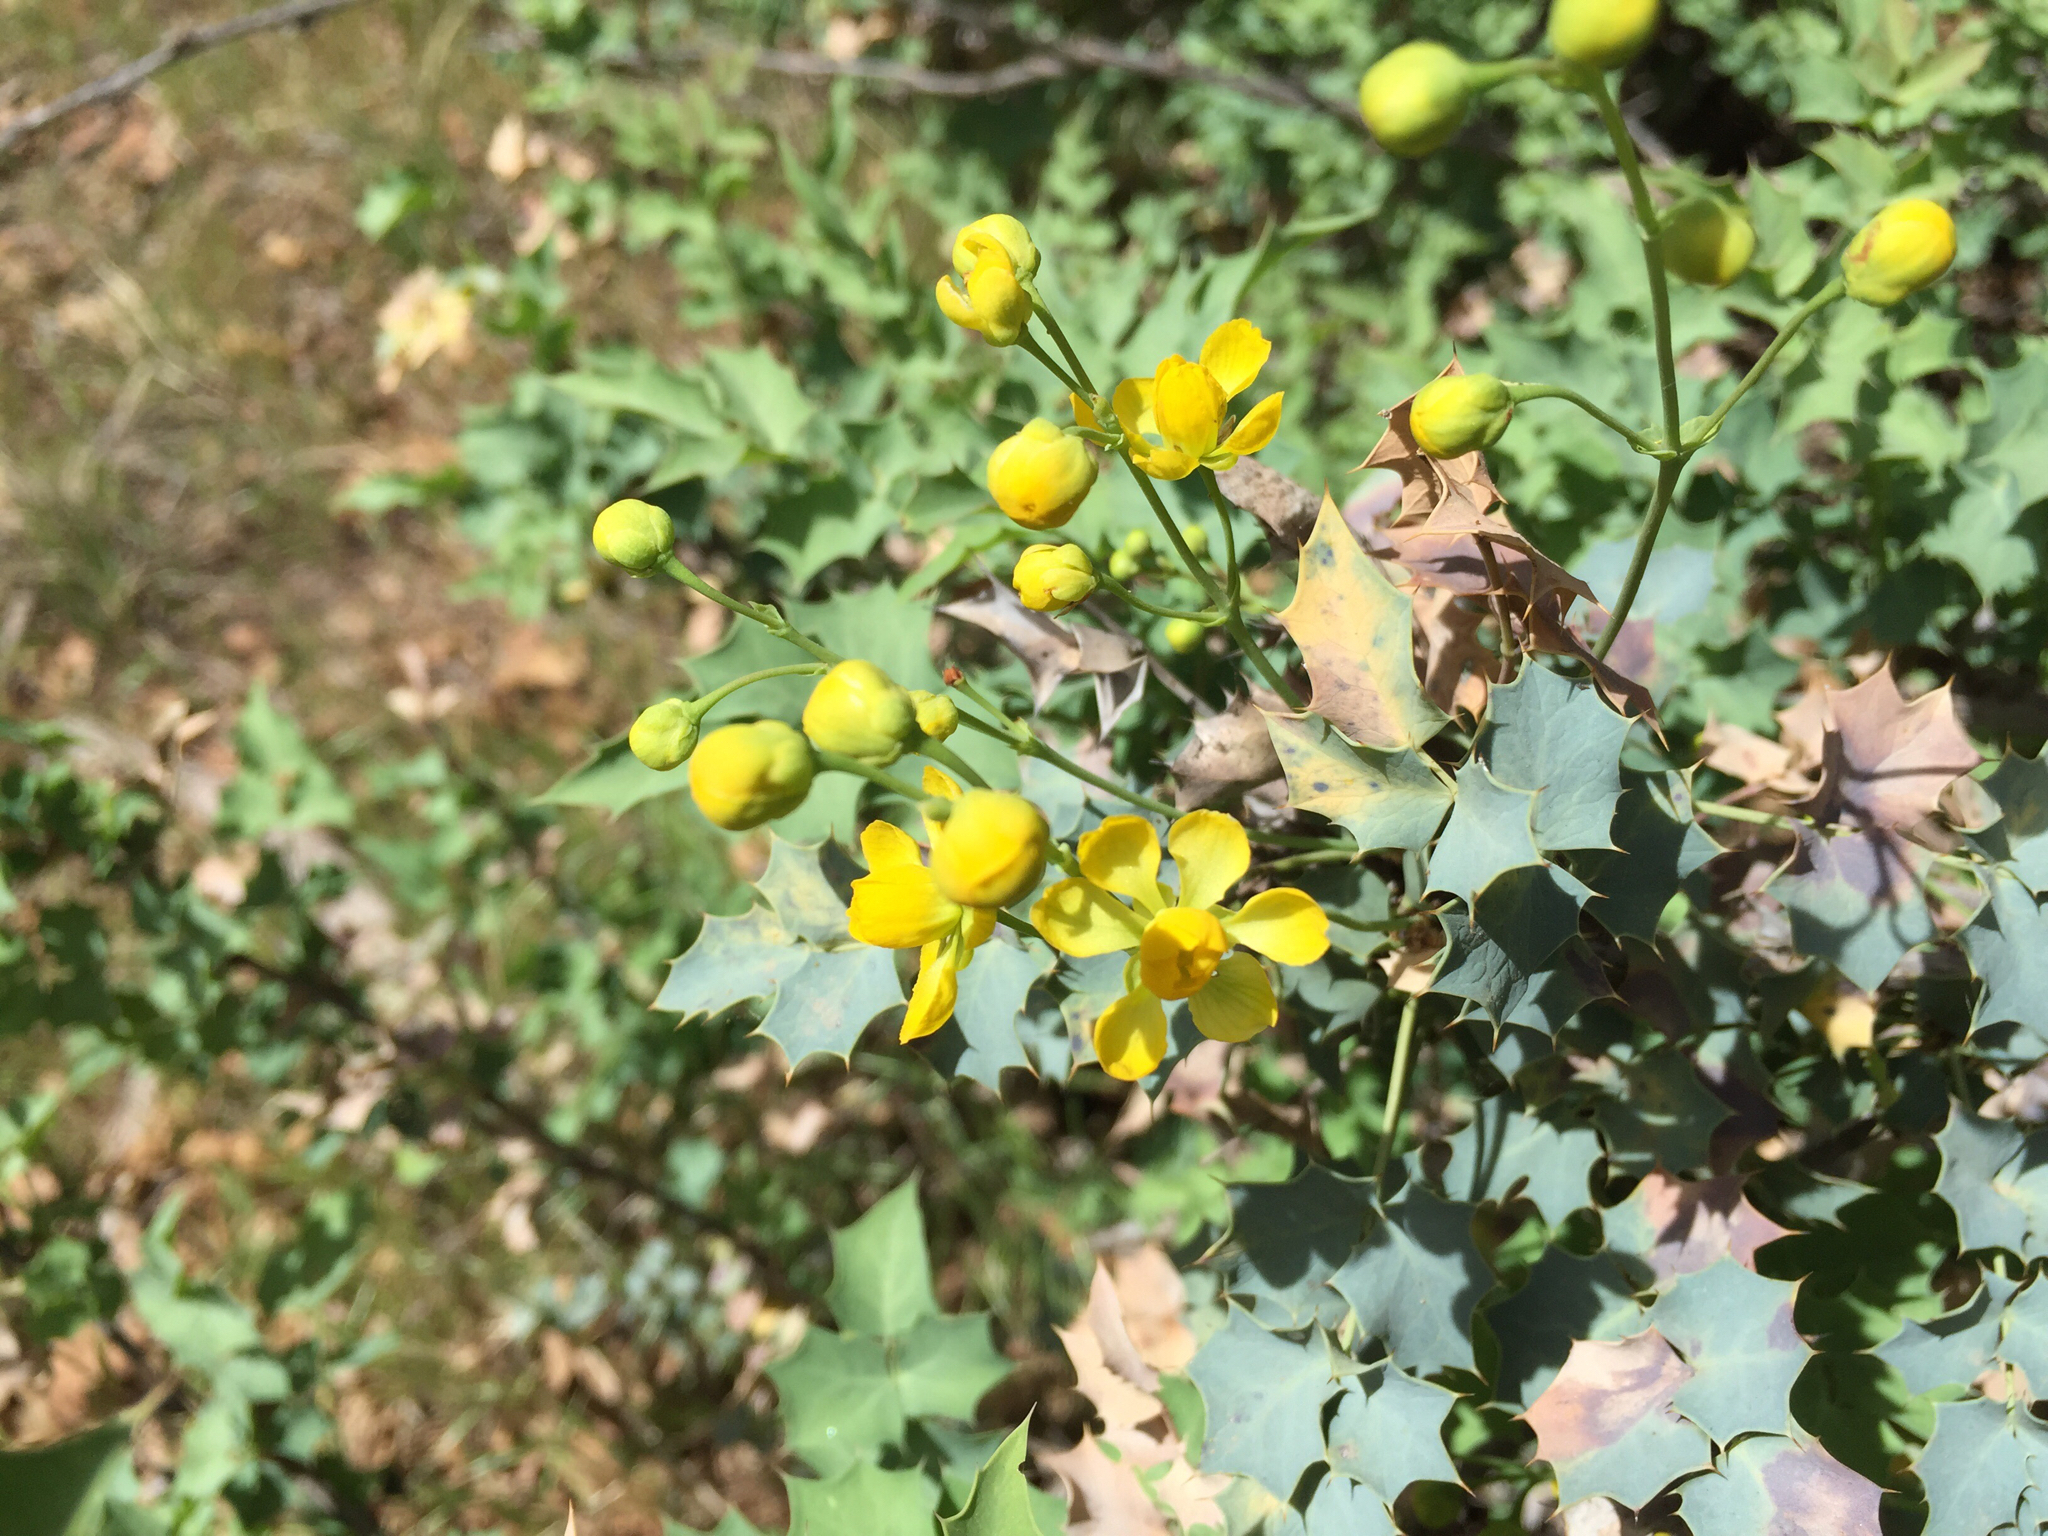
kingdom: Plantae
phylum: Tracheophyta
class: Magnoliopsida
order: Ranunculales
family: Berberidaceae
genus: Alloberberis
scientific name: Alloberberis fremontii
